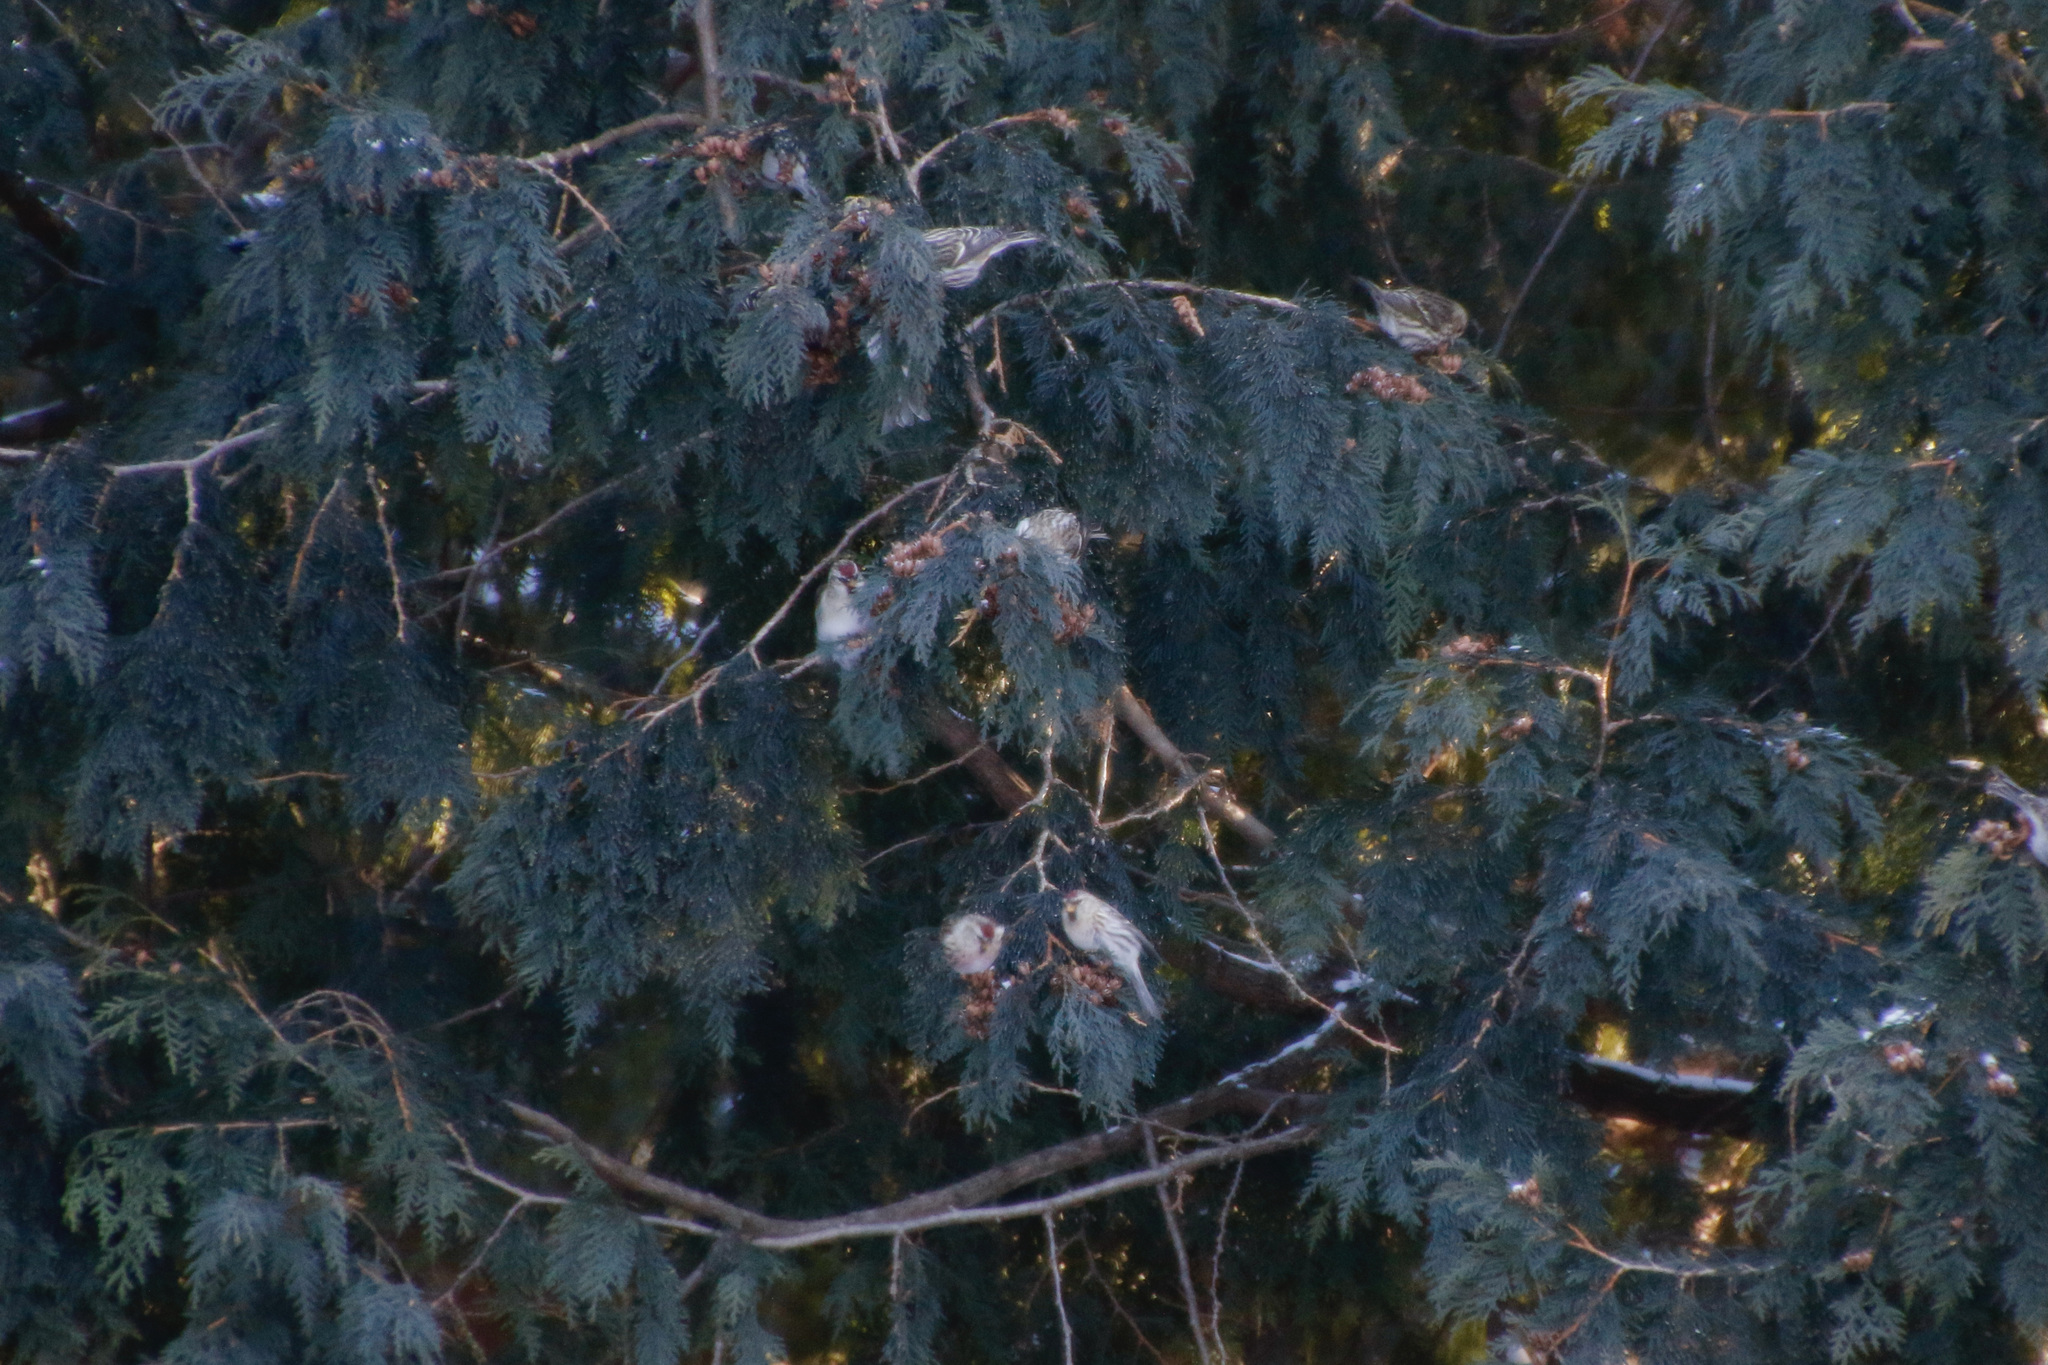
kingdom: Animalia
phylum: Chordata
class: Aves
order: Passeriformes
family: Fringillidae
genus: Acanthis
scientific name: Acanthis flammea
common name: Common redpoll
